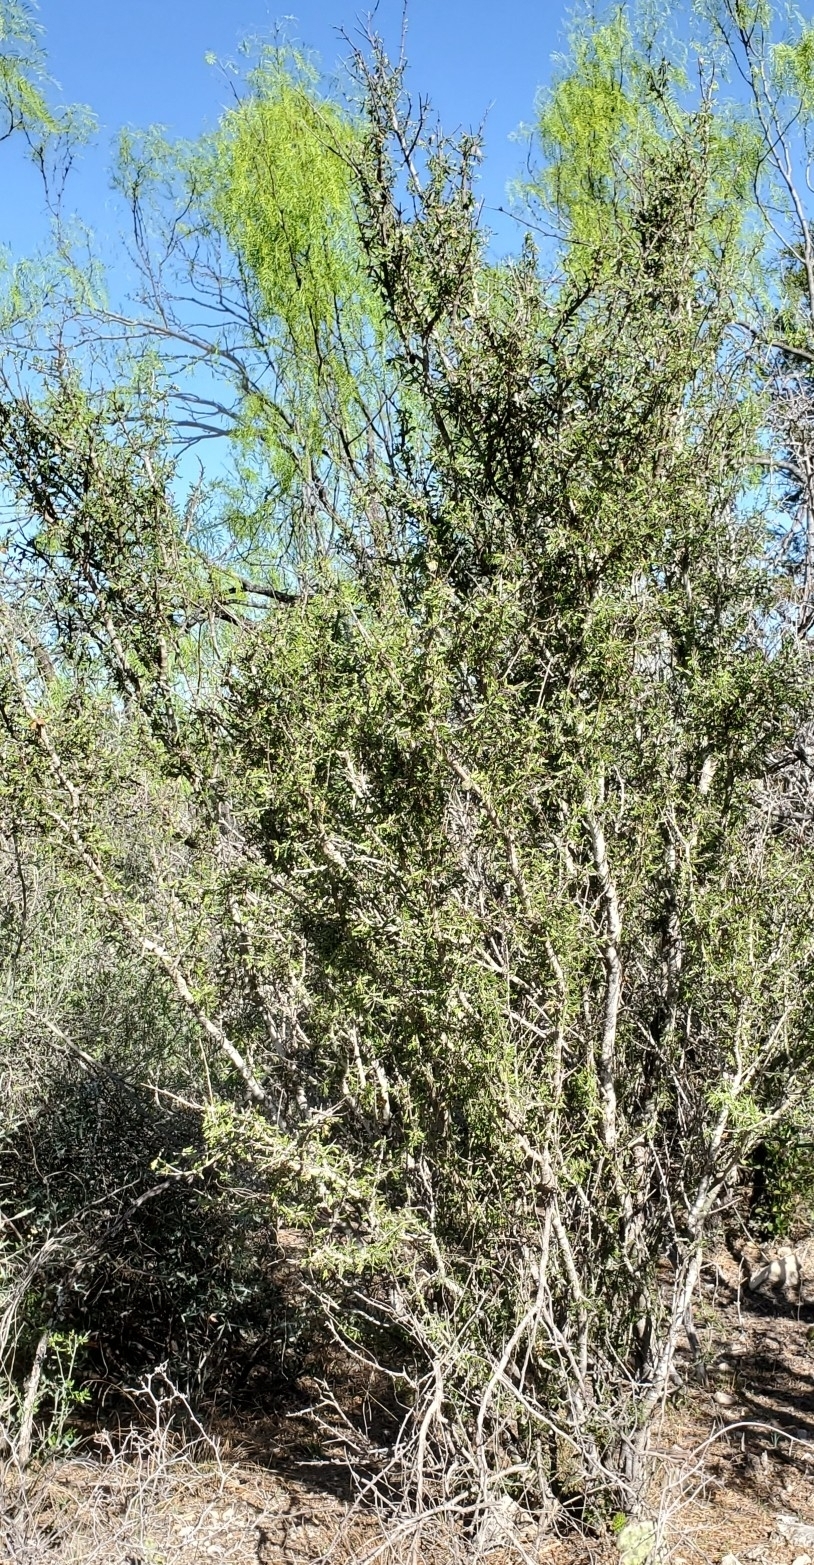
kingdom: Plantae
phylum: Tracheophyta
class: Magnoliopsida
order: Zygophyllales
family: Zygophyllaceae
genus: Porlieria
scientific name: Porlieria angustifolia
